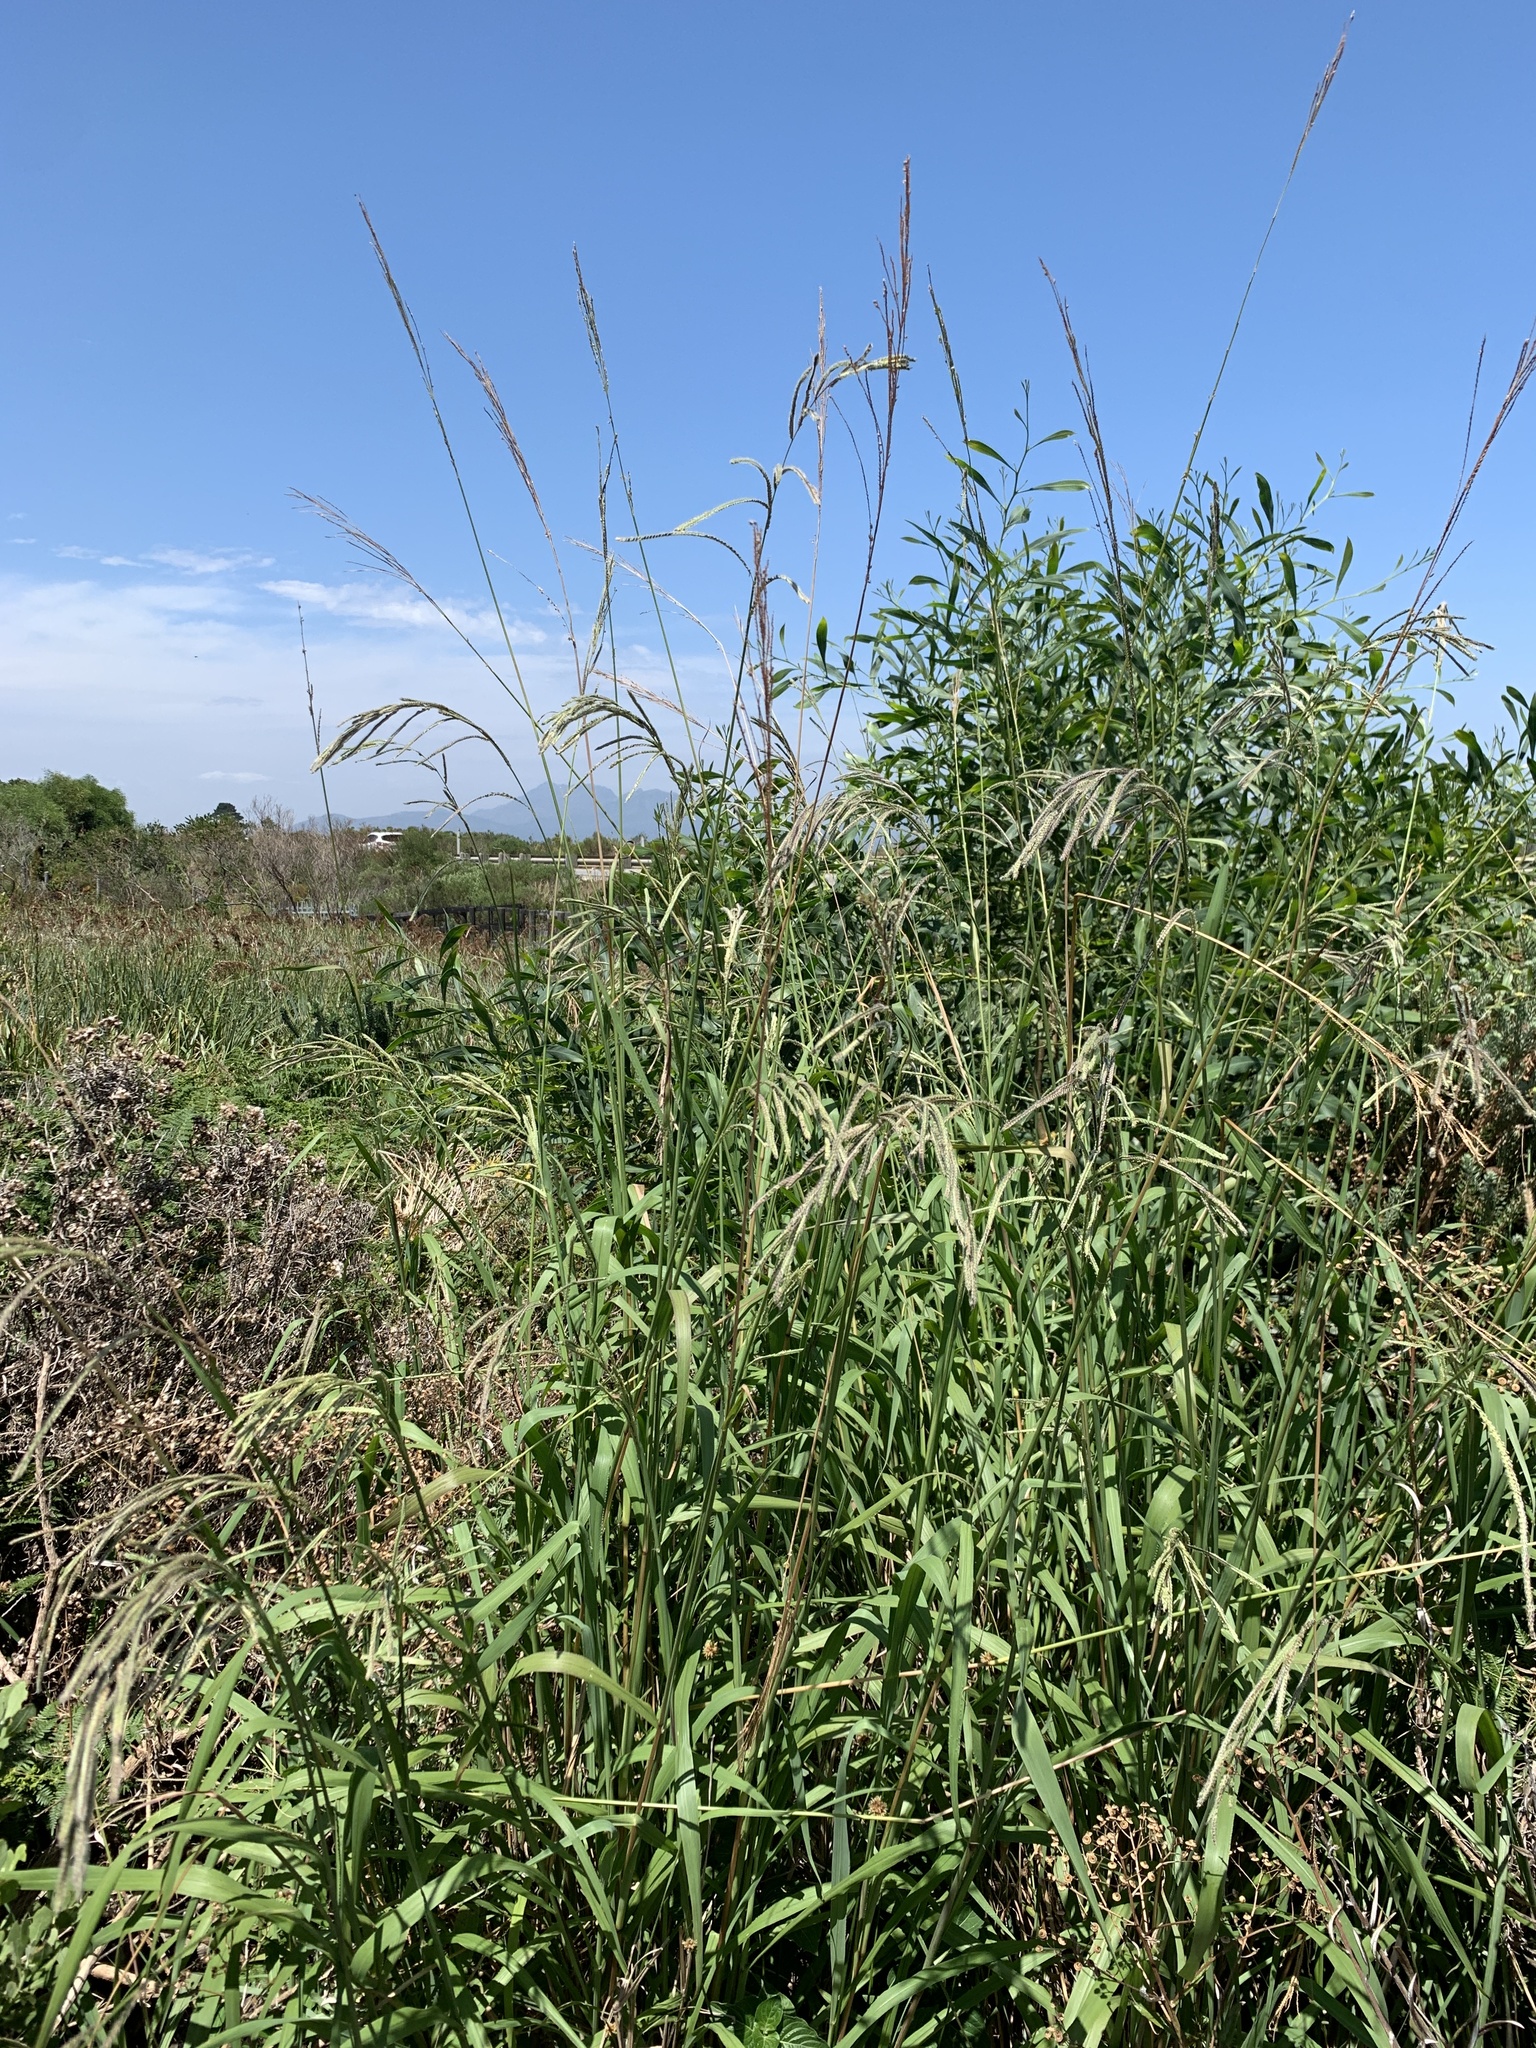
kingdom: Plantae
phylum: Tracheophyta
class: Liliopsida
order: Poales
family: Poaceae
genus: Paspalum
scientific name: Paspalum urvillei
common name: Vasey's grass
